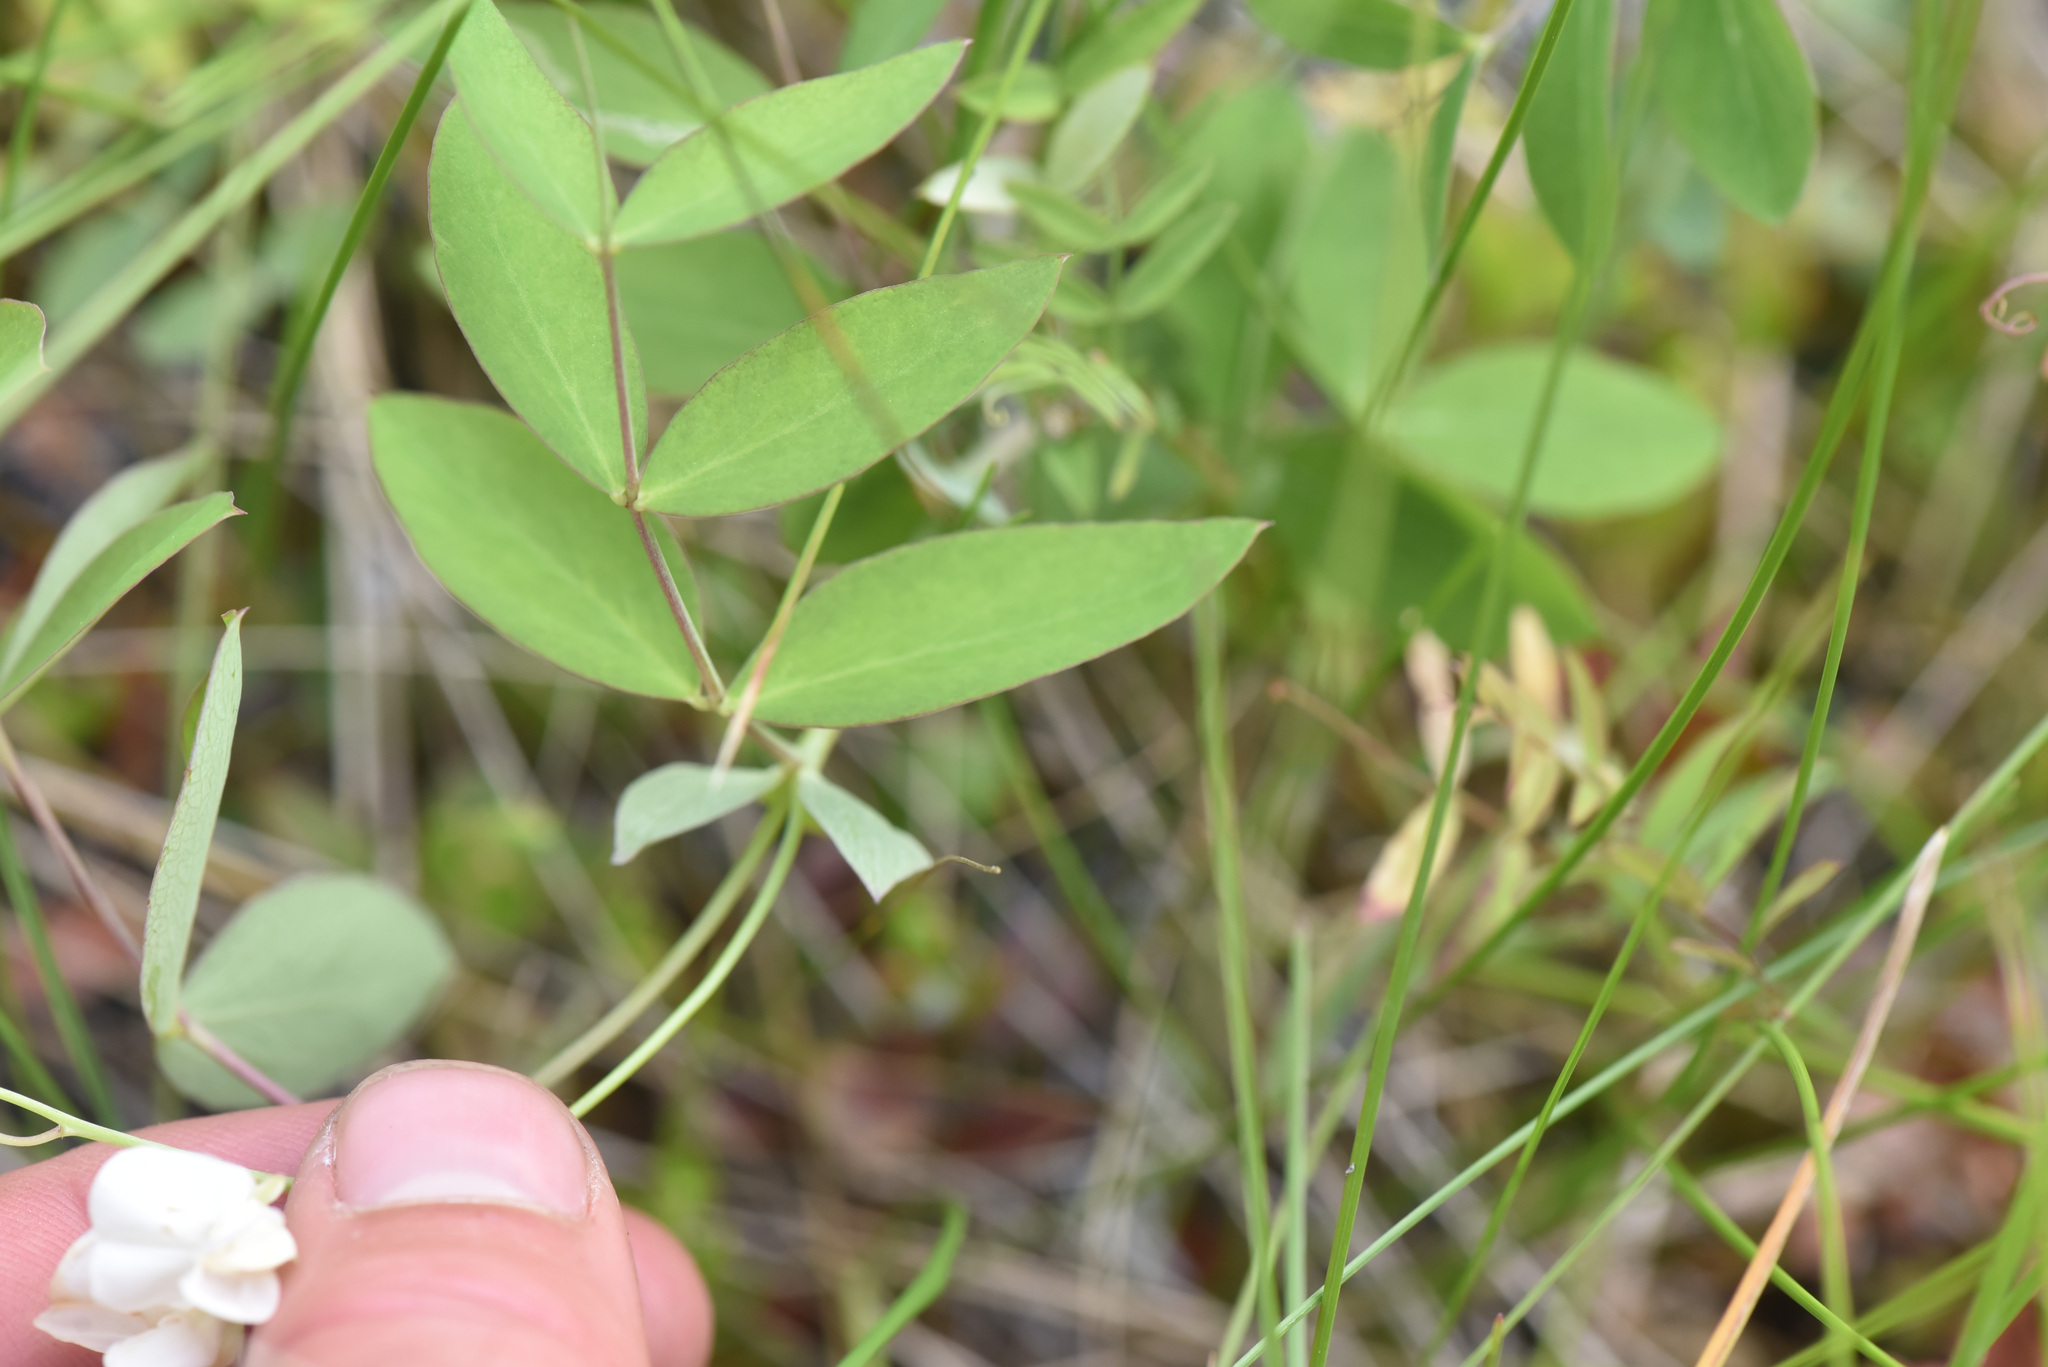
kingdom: Plantae
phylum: Tracheophyta
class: Magnoliopsida
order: Fabales
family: Fabaceae
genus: Lathyrus
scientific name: Lathyrus ochroleucus
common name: Pale vetchling
